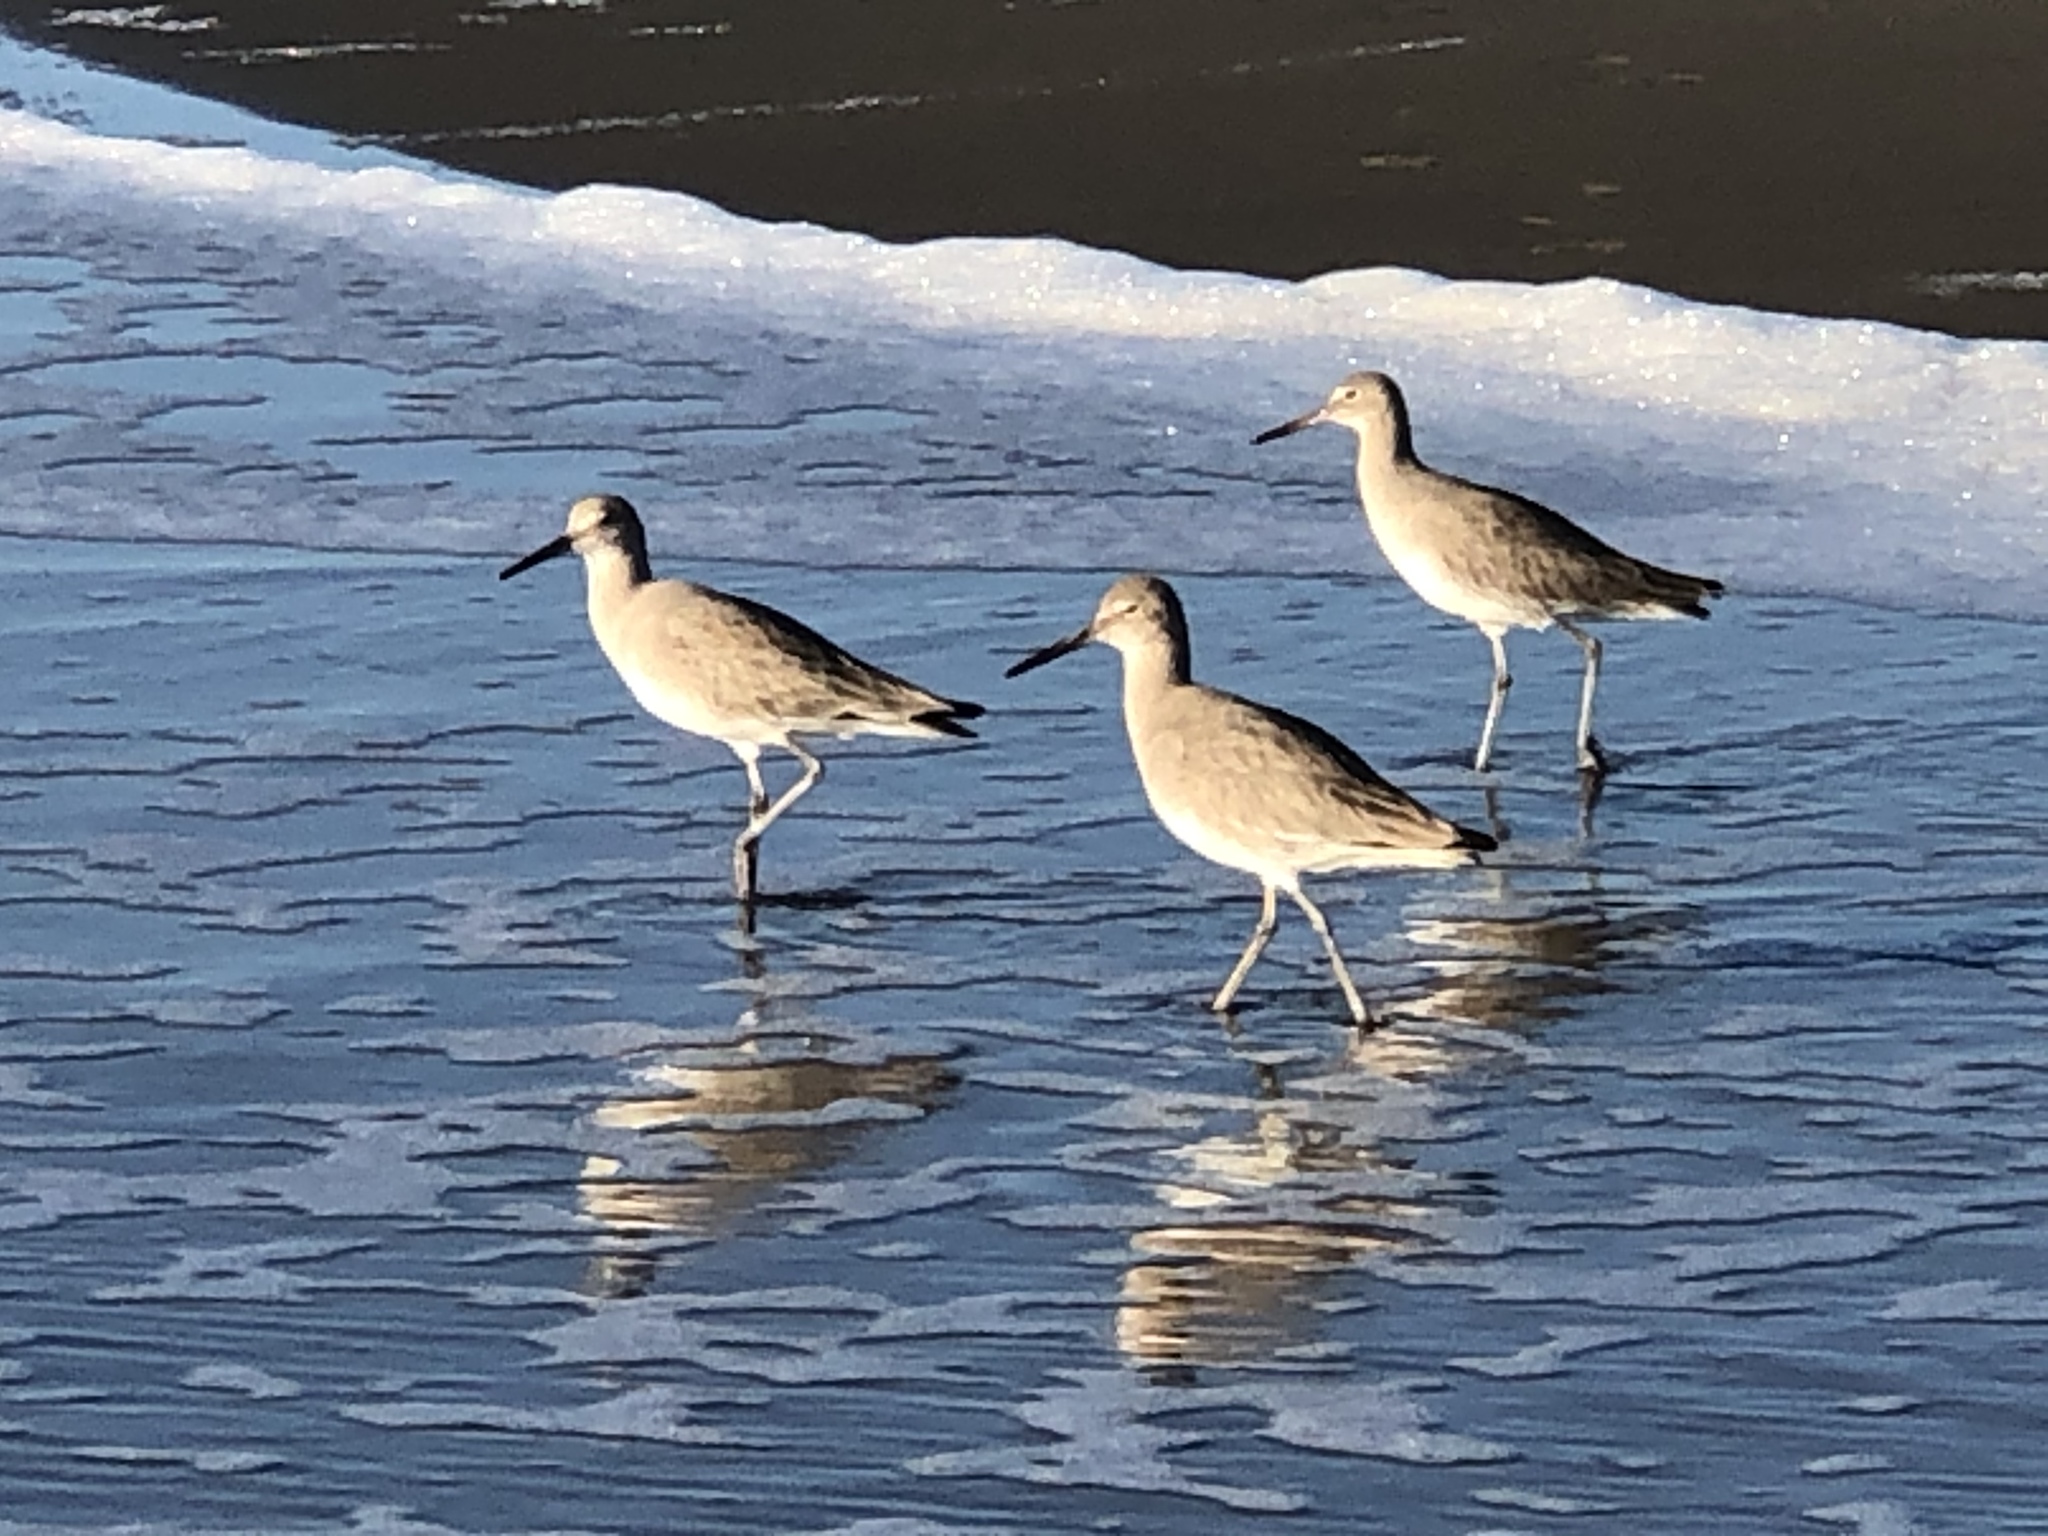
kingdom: Animalia
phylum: Chordata
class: Aves
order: Charadriiformes
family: Scolopacidae
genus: Tringa
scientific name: Tringa semipalmata
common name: Willet
